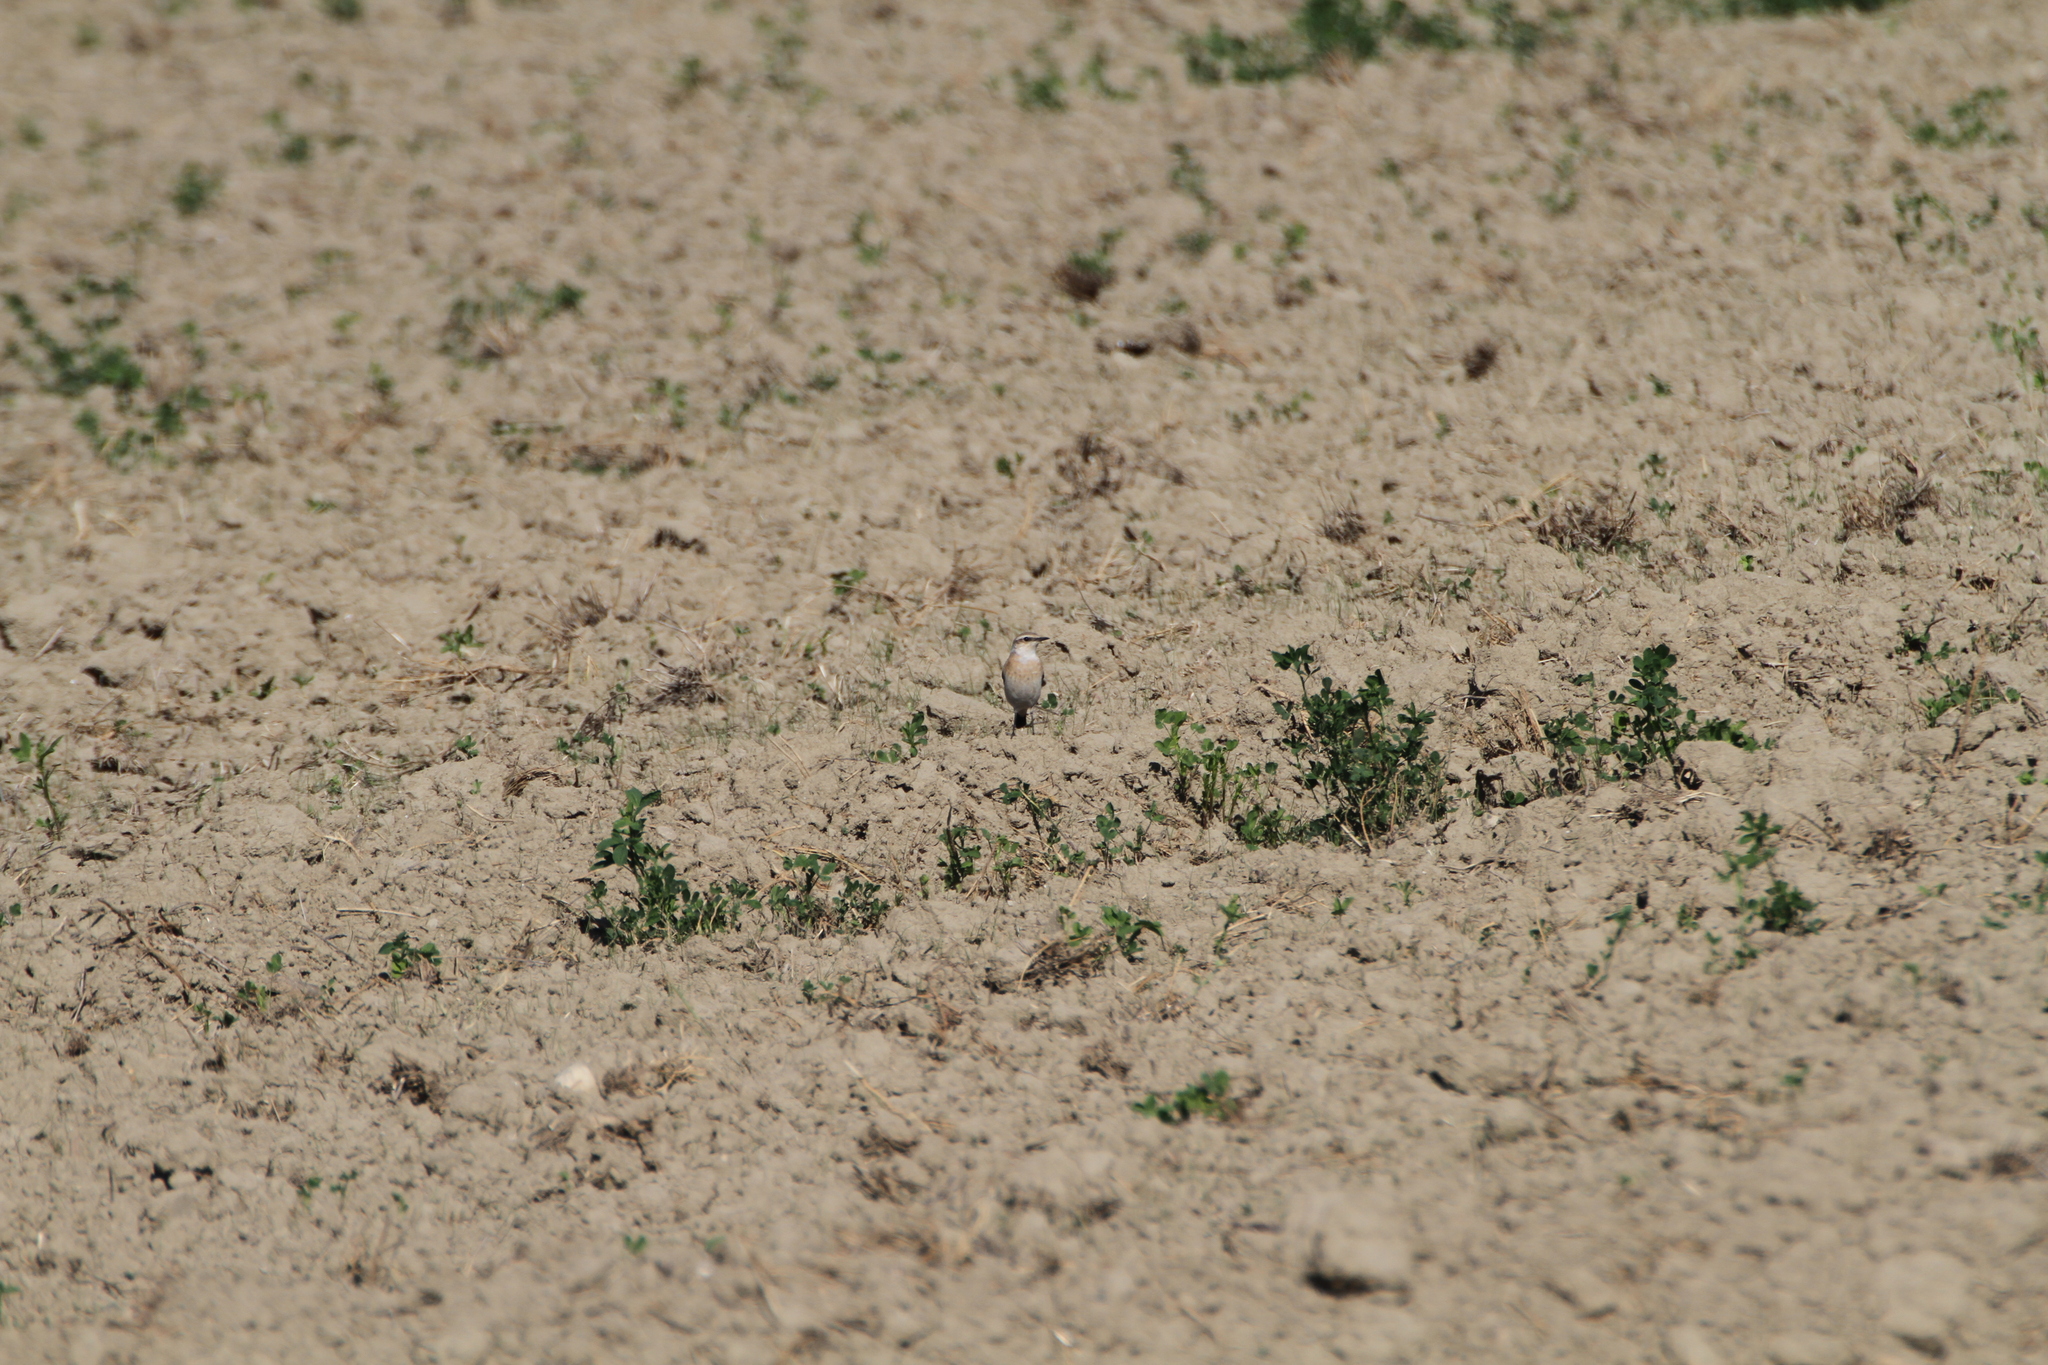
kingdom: Animalia
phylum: Chordata
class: Aves
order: Passeriformes
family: Muscicapidae
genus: Oenanthe
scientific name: Oenanthe oenanthe
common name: Northern wheatear
